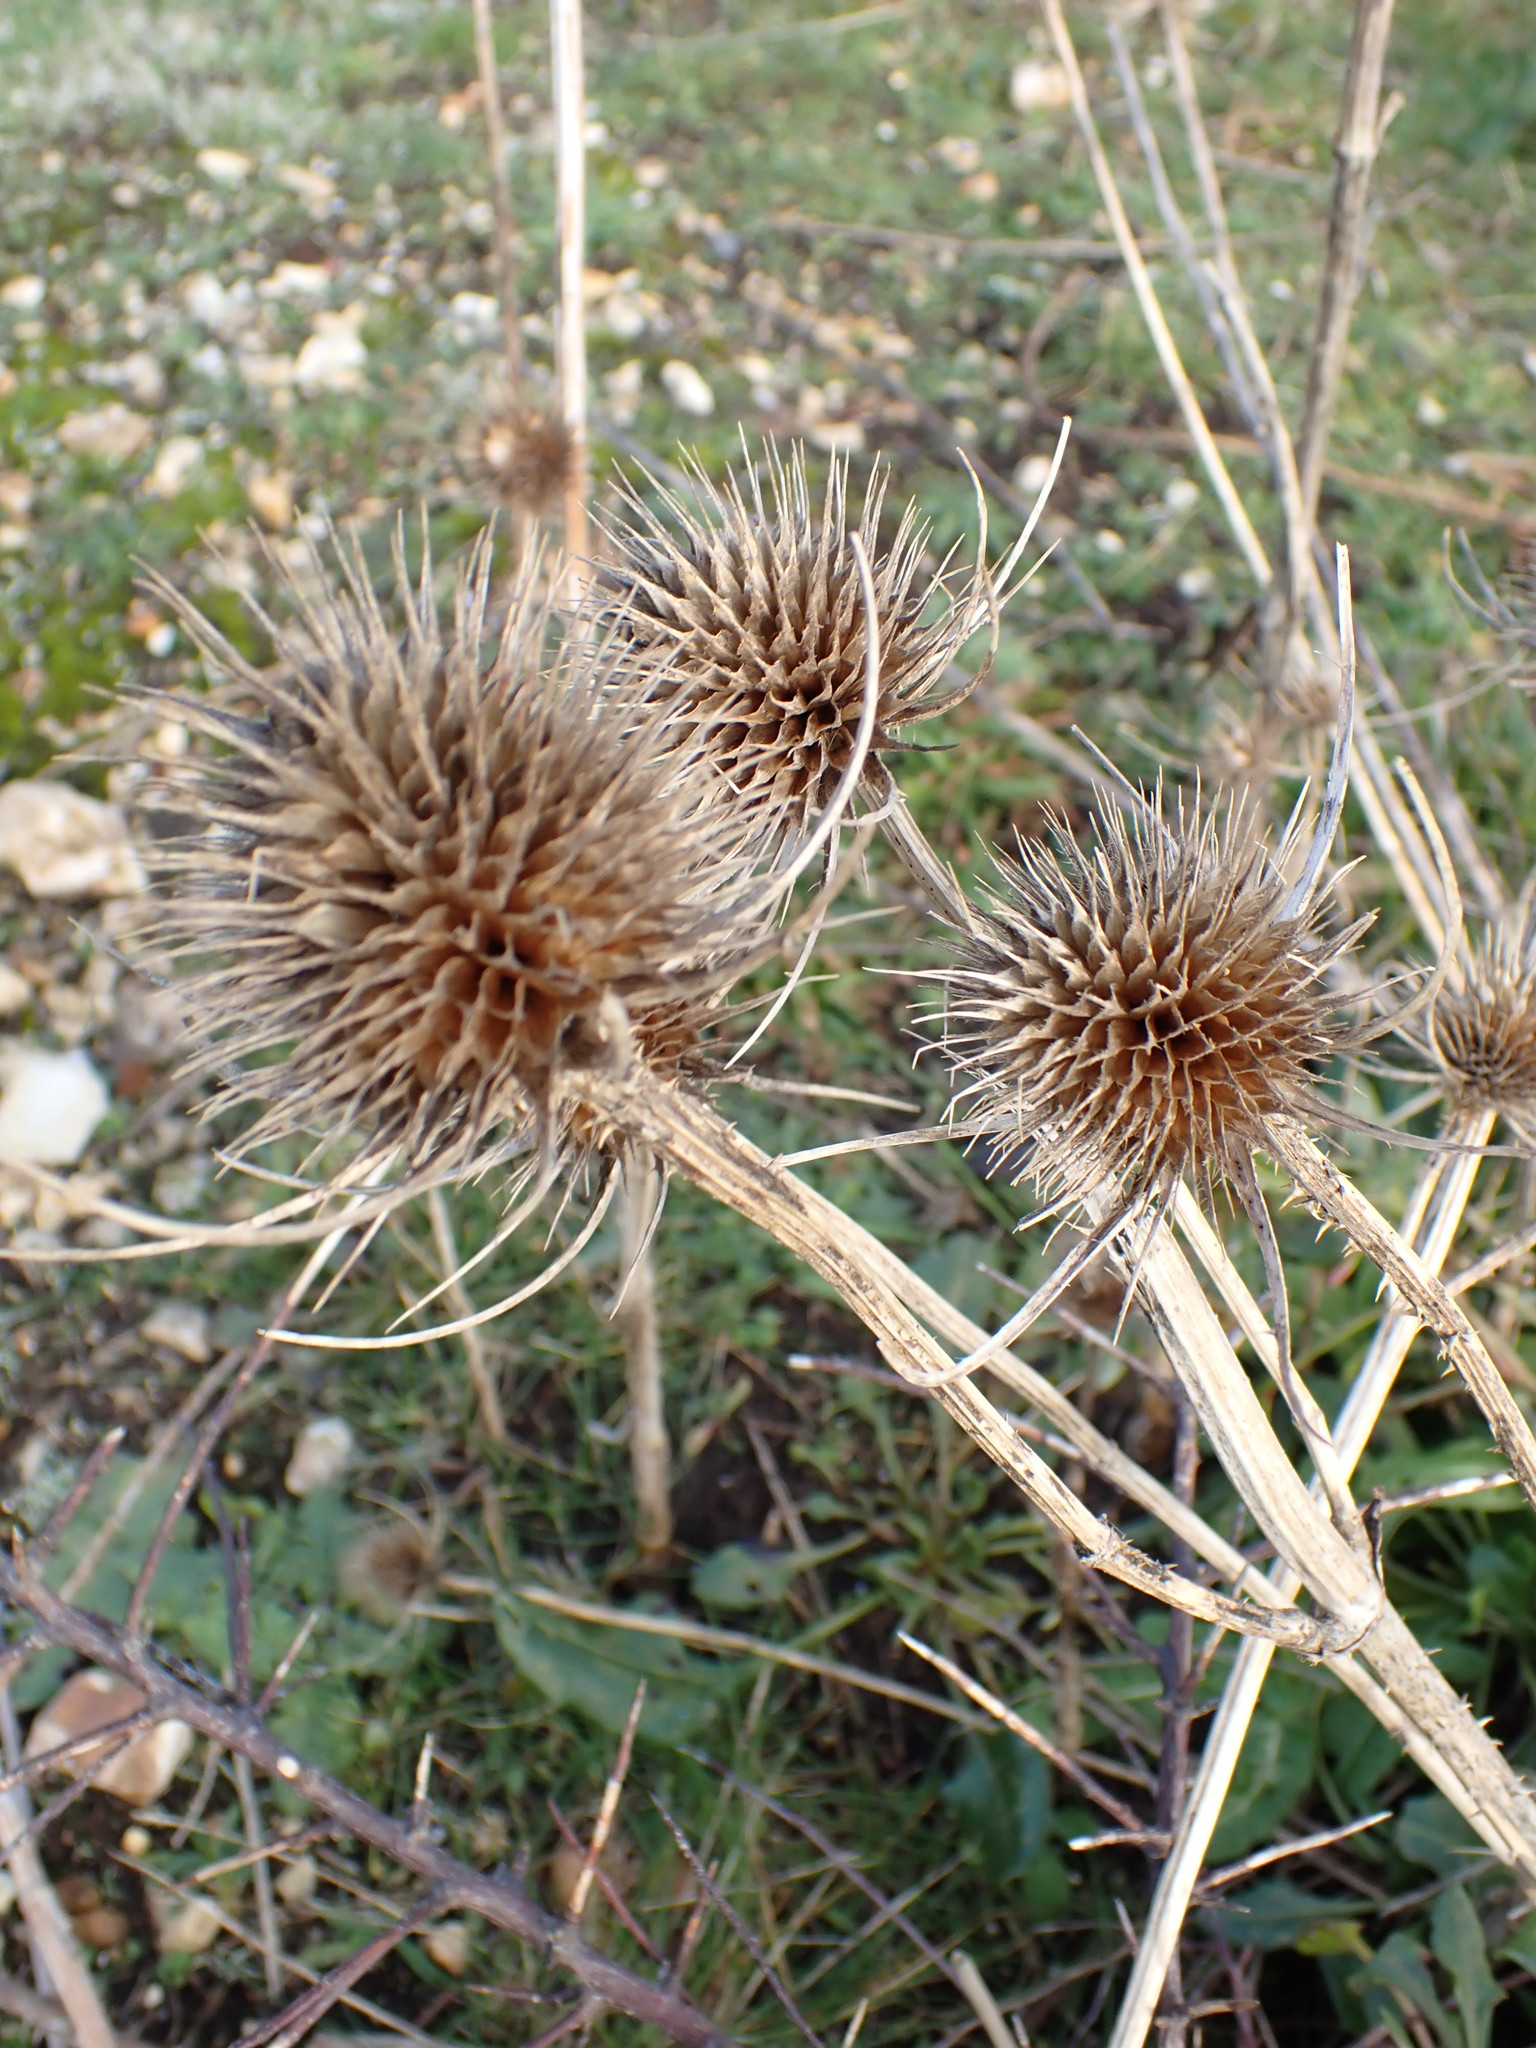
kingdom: Plantae
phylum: Tracheophyta
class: Magnoliopsida
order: Dipsacales
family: Caprifoliaceae
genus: Dipsacus
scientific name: Dipsacus fullonum
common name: Teasel
